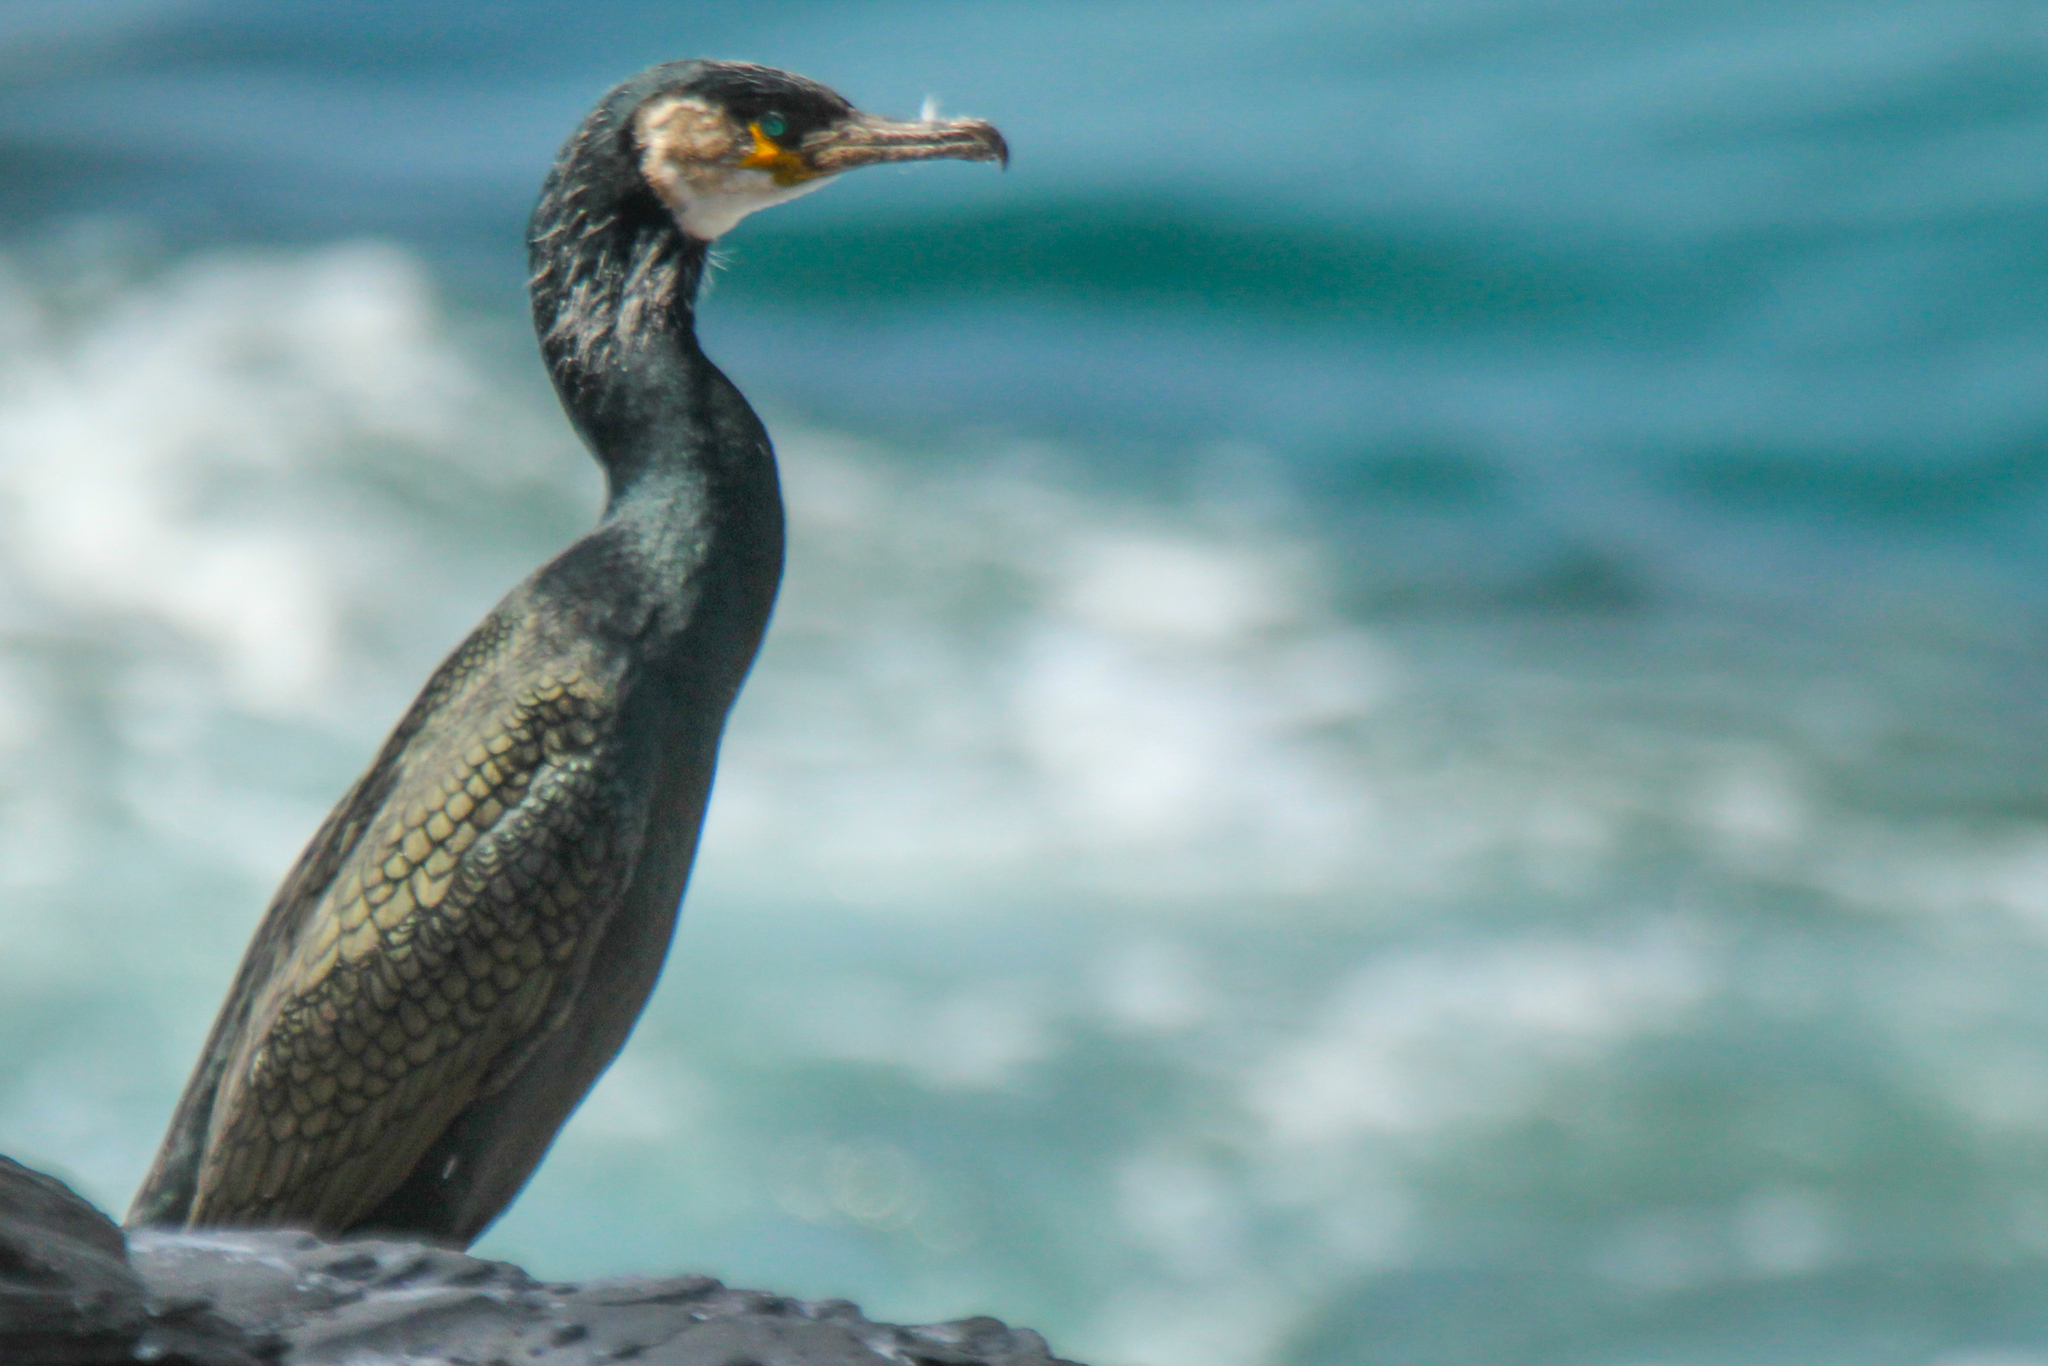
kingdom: Animalia
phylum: Chordata
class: Aves
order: Suliformes
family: Phalacrocoracidae
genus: Phalacrocorax
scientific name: Phalacrocorax capillatus
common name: Japanese cormorant
